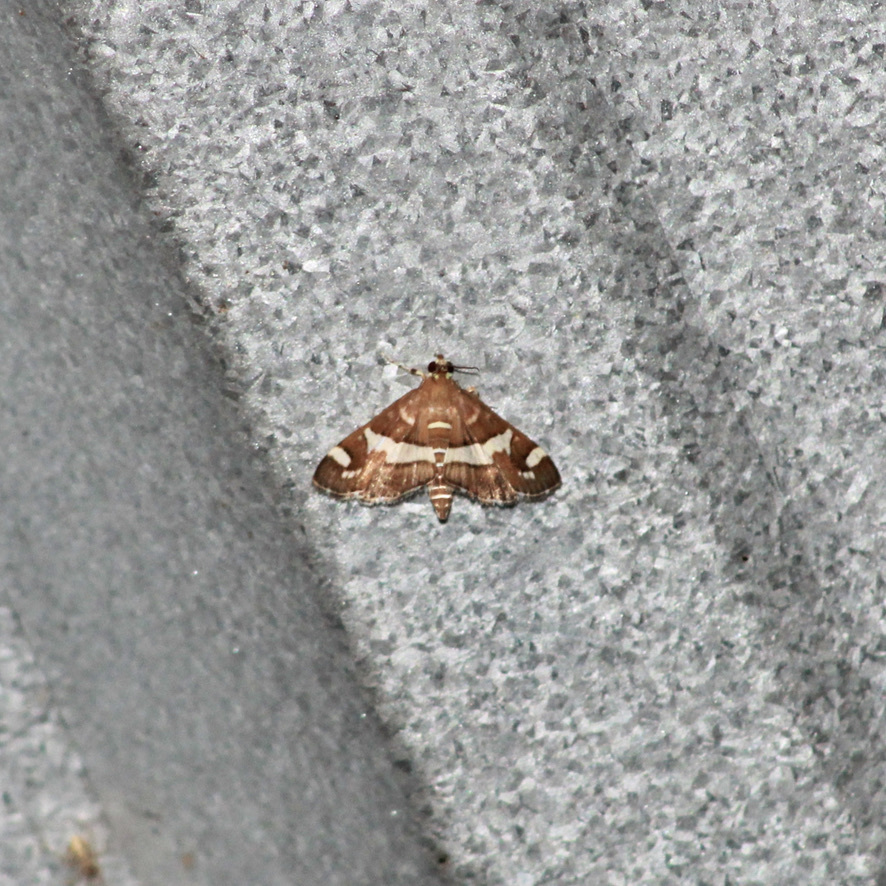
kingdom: Animalia
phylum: Arthropoda
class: Insecta
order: Lepidoptera
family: Crambidae
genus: Spoladea
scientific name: Spoladea recurvalis
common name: Beet webworm moth
